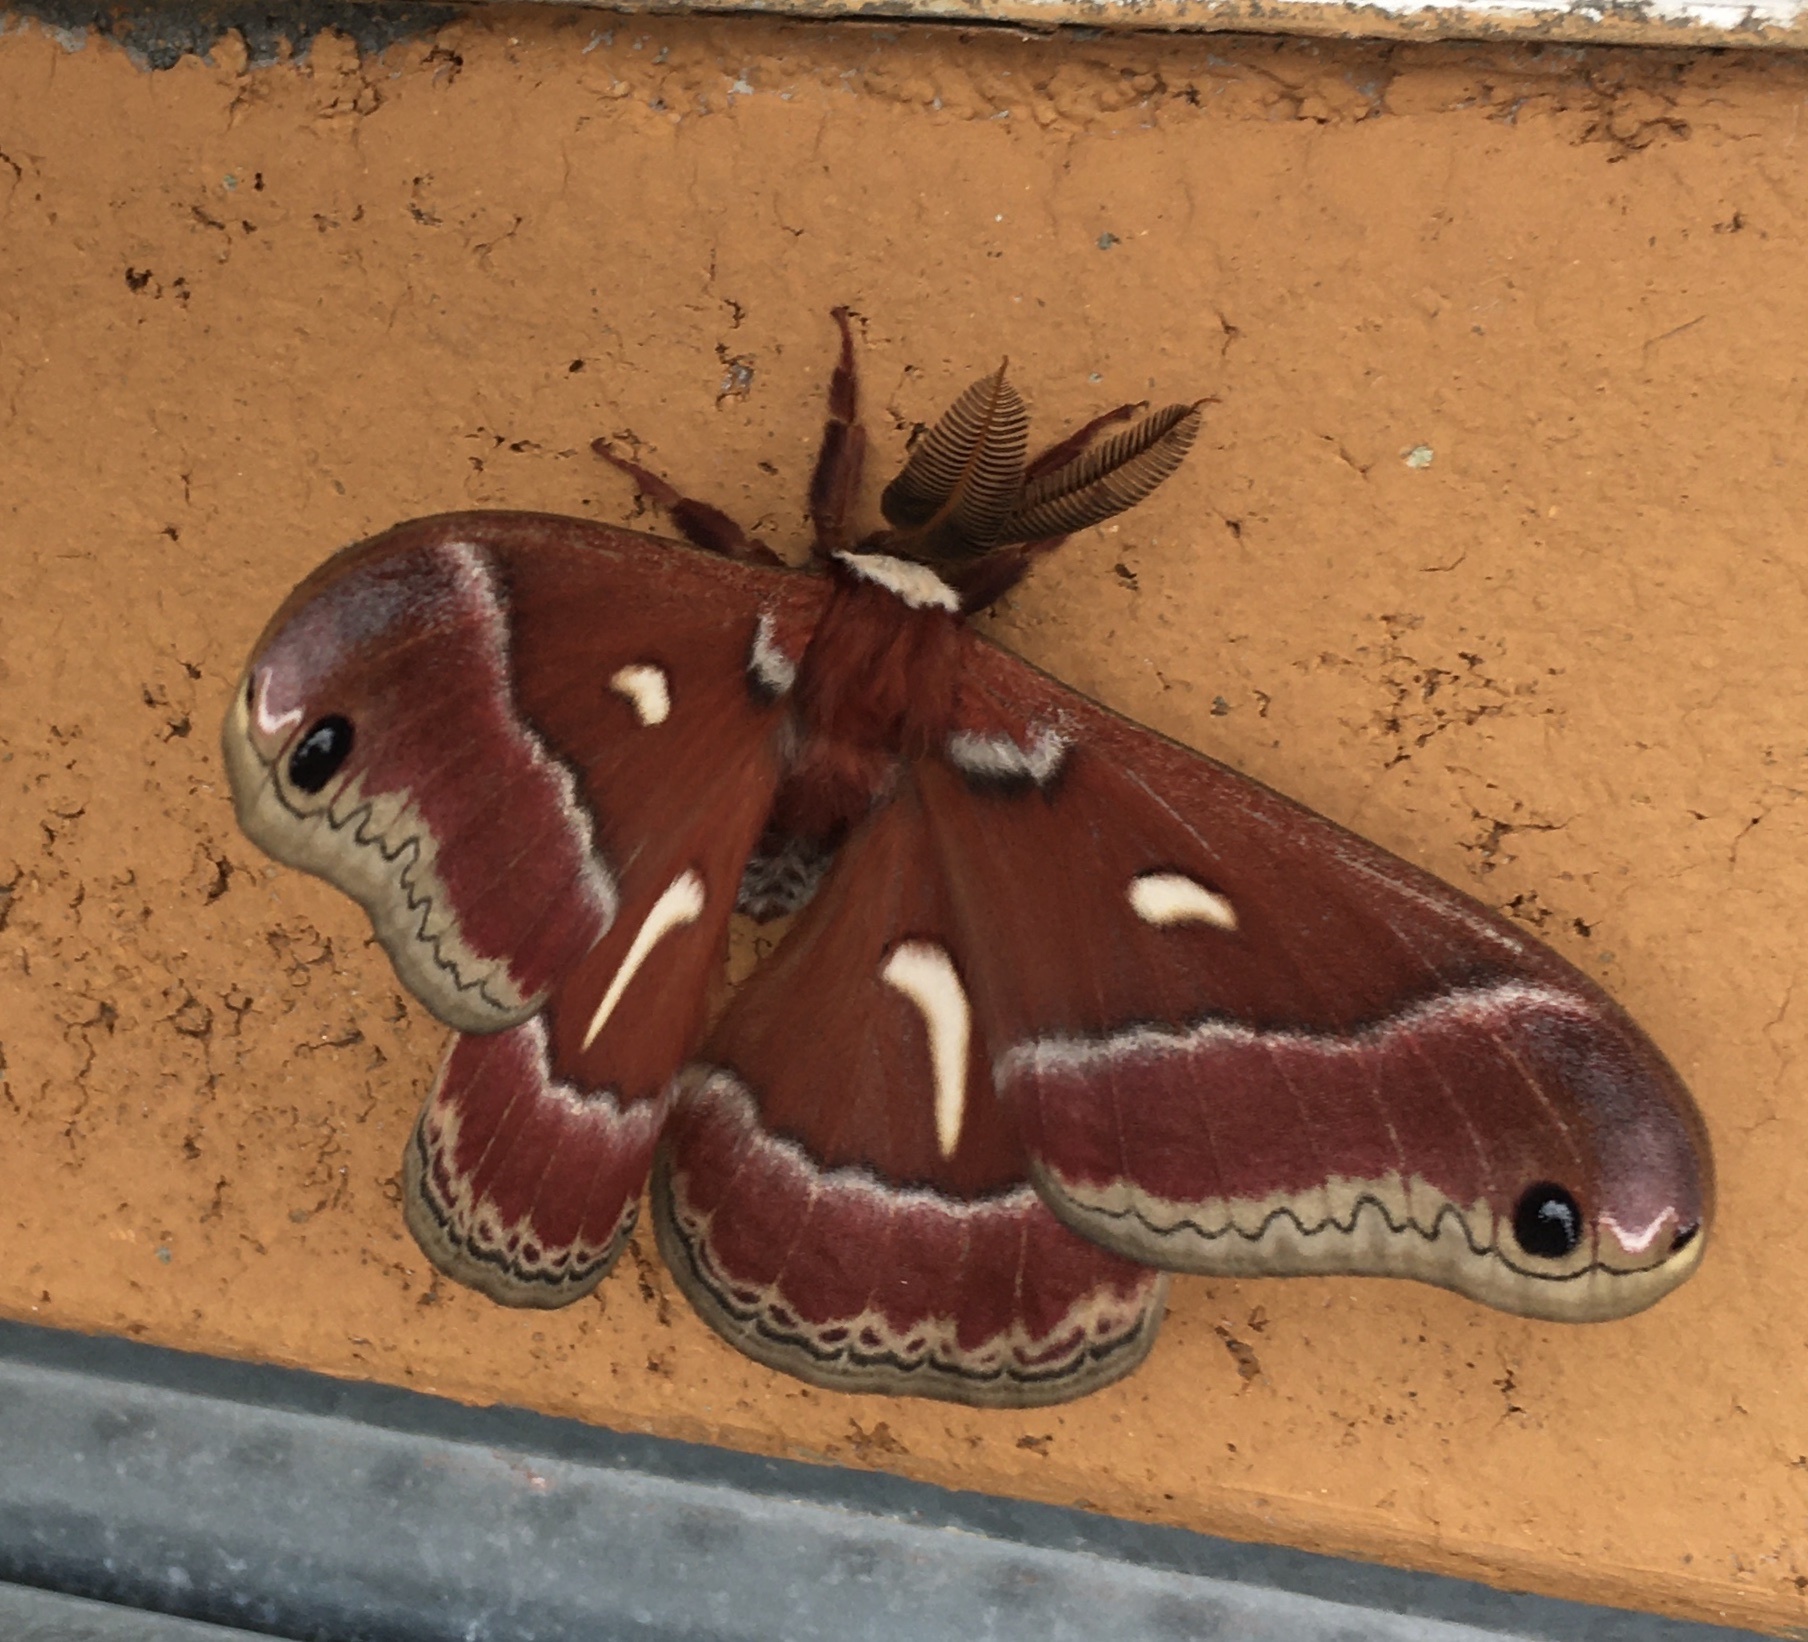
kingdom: Animalia
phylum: Arthropoda
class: Insecta
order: Lepidoptera
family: Saturniidae
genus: Hyalophora
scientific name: Hyalophora euryalus
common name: Ceanothus silkmoth
